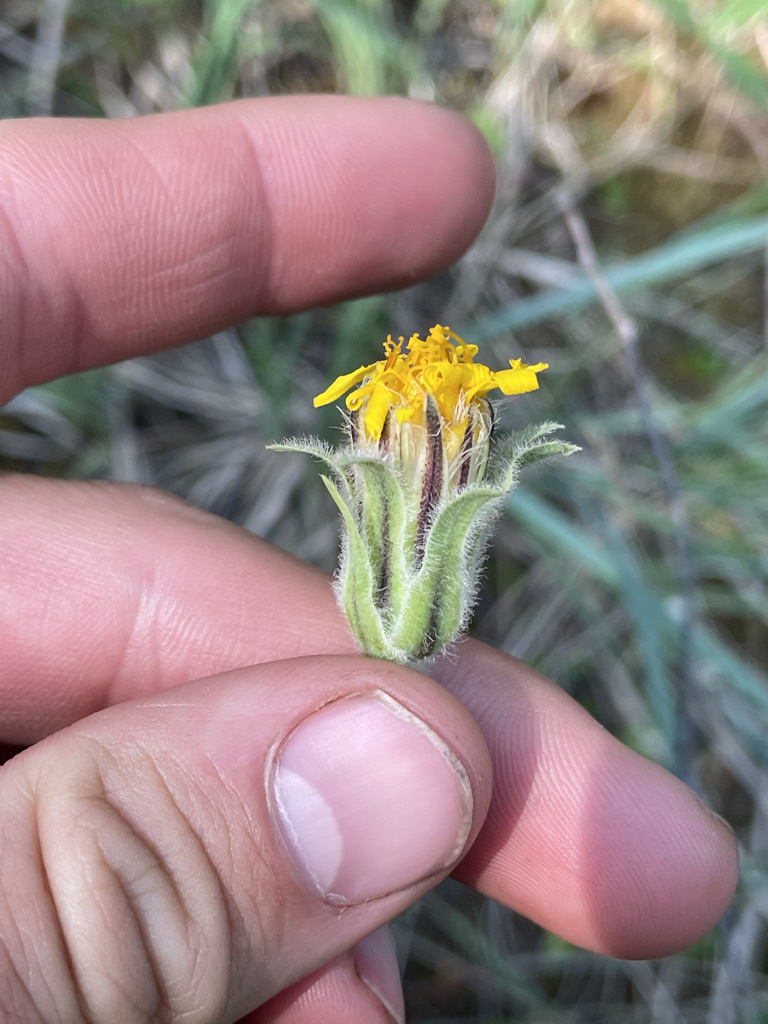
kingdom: Plantae
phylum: Tracheophyta
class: Magnoliopsida
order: Asterales
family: Asteraceae
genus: Agoseris
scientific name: Agoseris glauca
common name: Prairie agoseris
